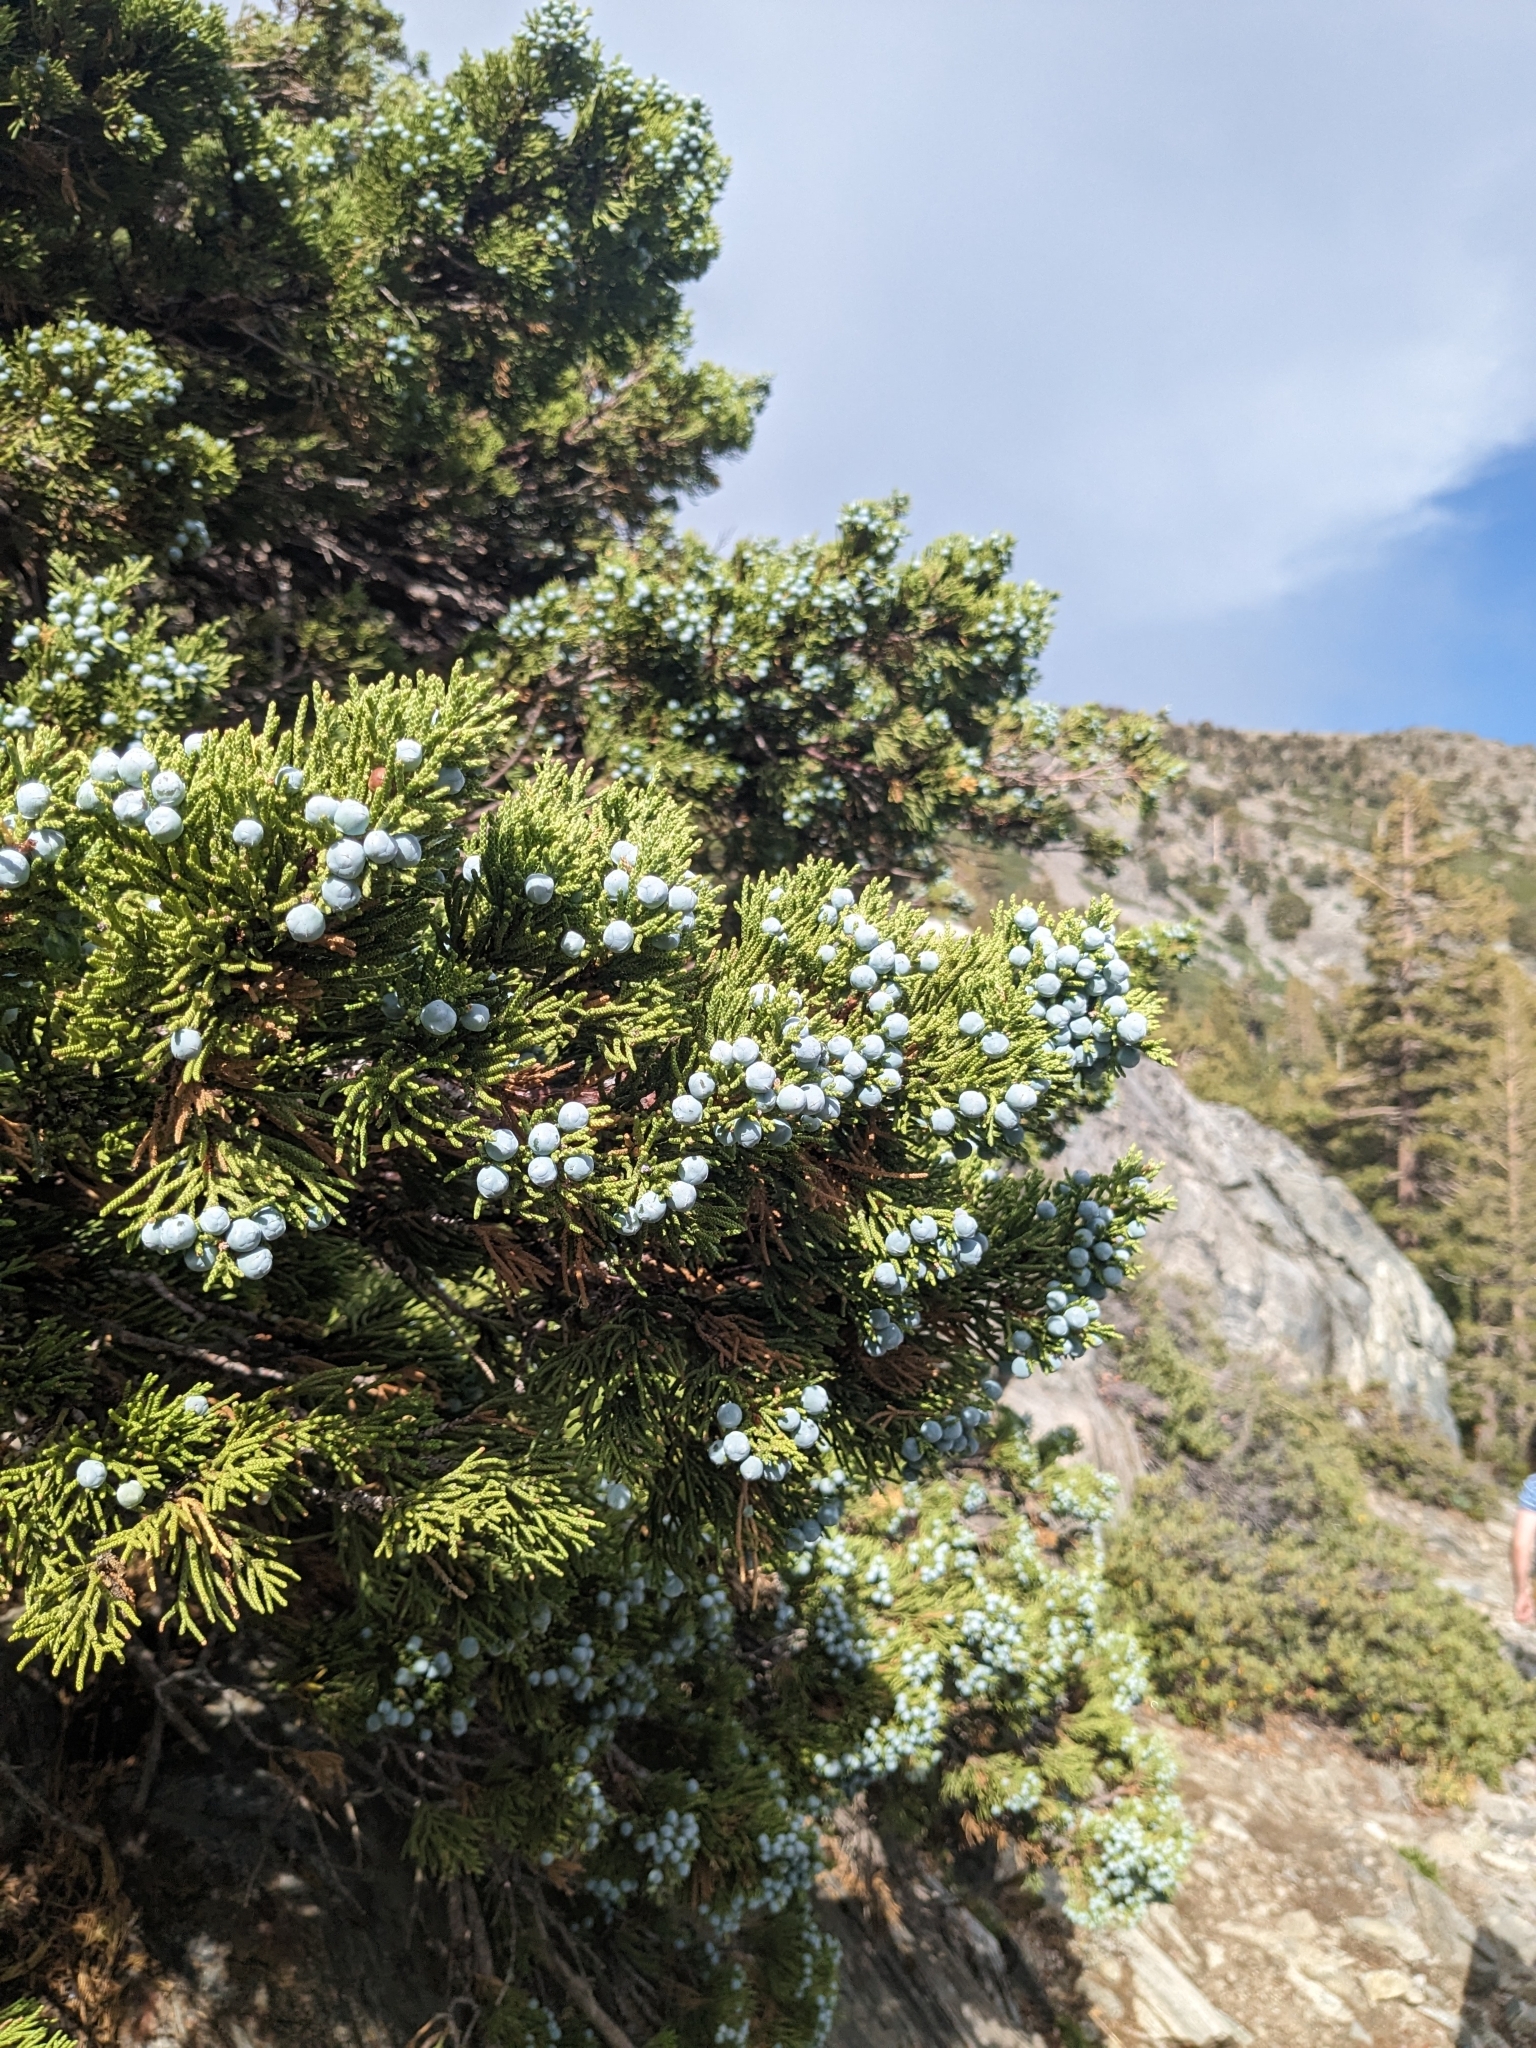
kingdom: Plantae
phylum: Tracheophyta
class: Pinopsida
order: Pinales
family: Cupressaceae
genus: Juniperus
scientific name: Juniperus occidentalis
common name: Western juniper
